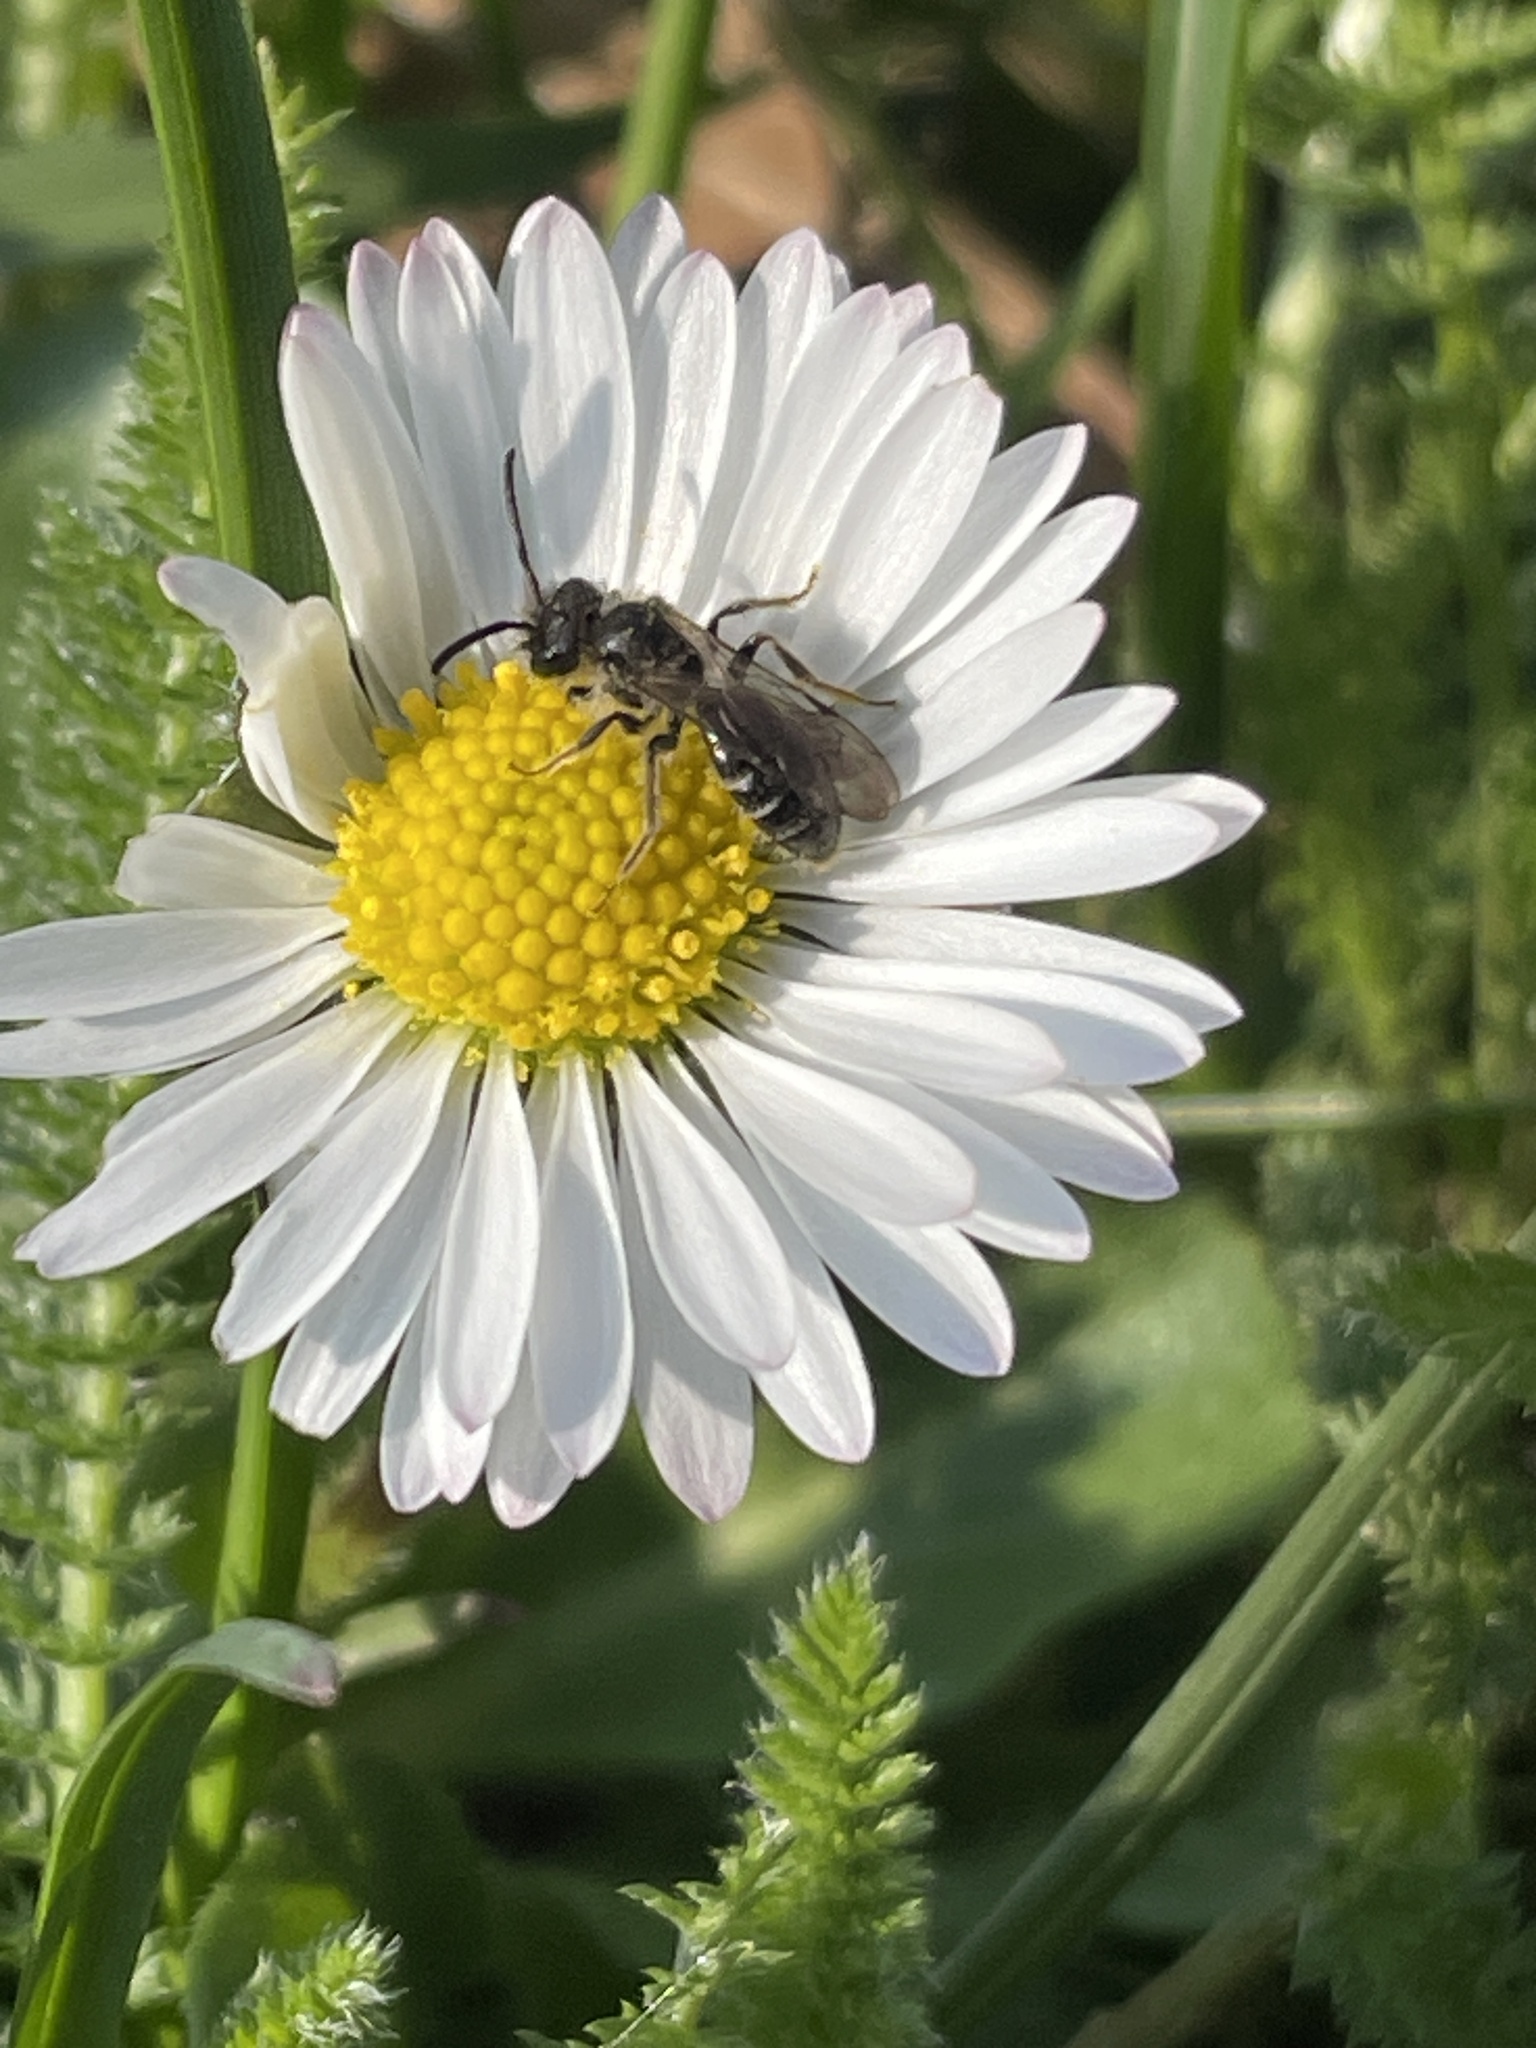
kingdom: Animalia
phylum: Arthropoda
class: Insecta
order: Hymenoptera
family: Andrenidae
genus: Andrena
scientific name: Andrena
